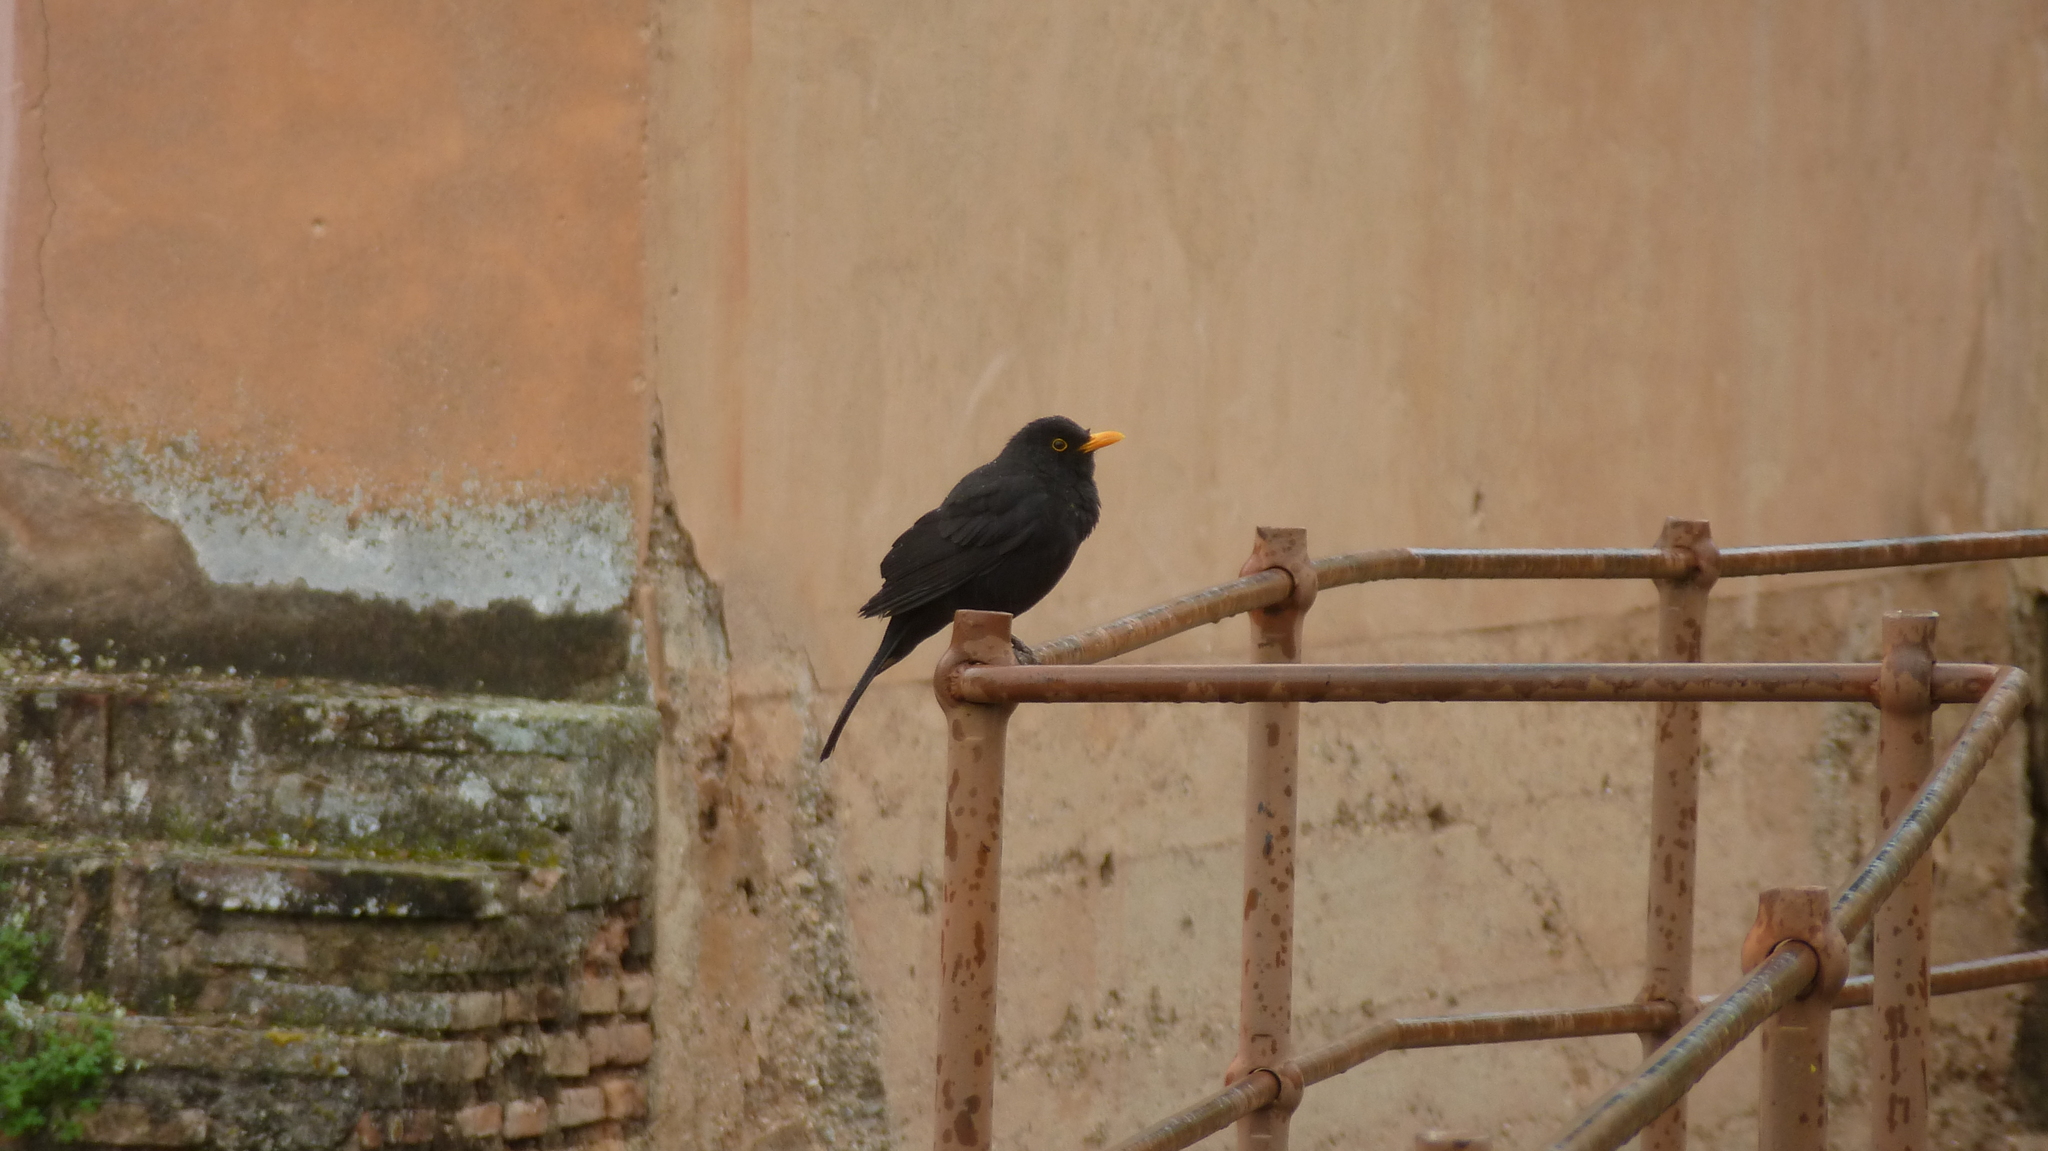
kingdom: Animalia
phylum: Chordata
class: Aves
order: Passeriformes
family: Turdidae
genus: Turdus
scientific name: Turdus merula
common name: Common blackbird
